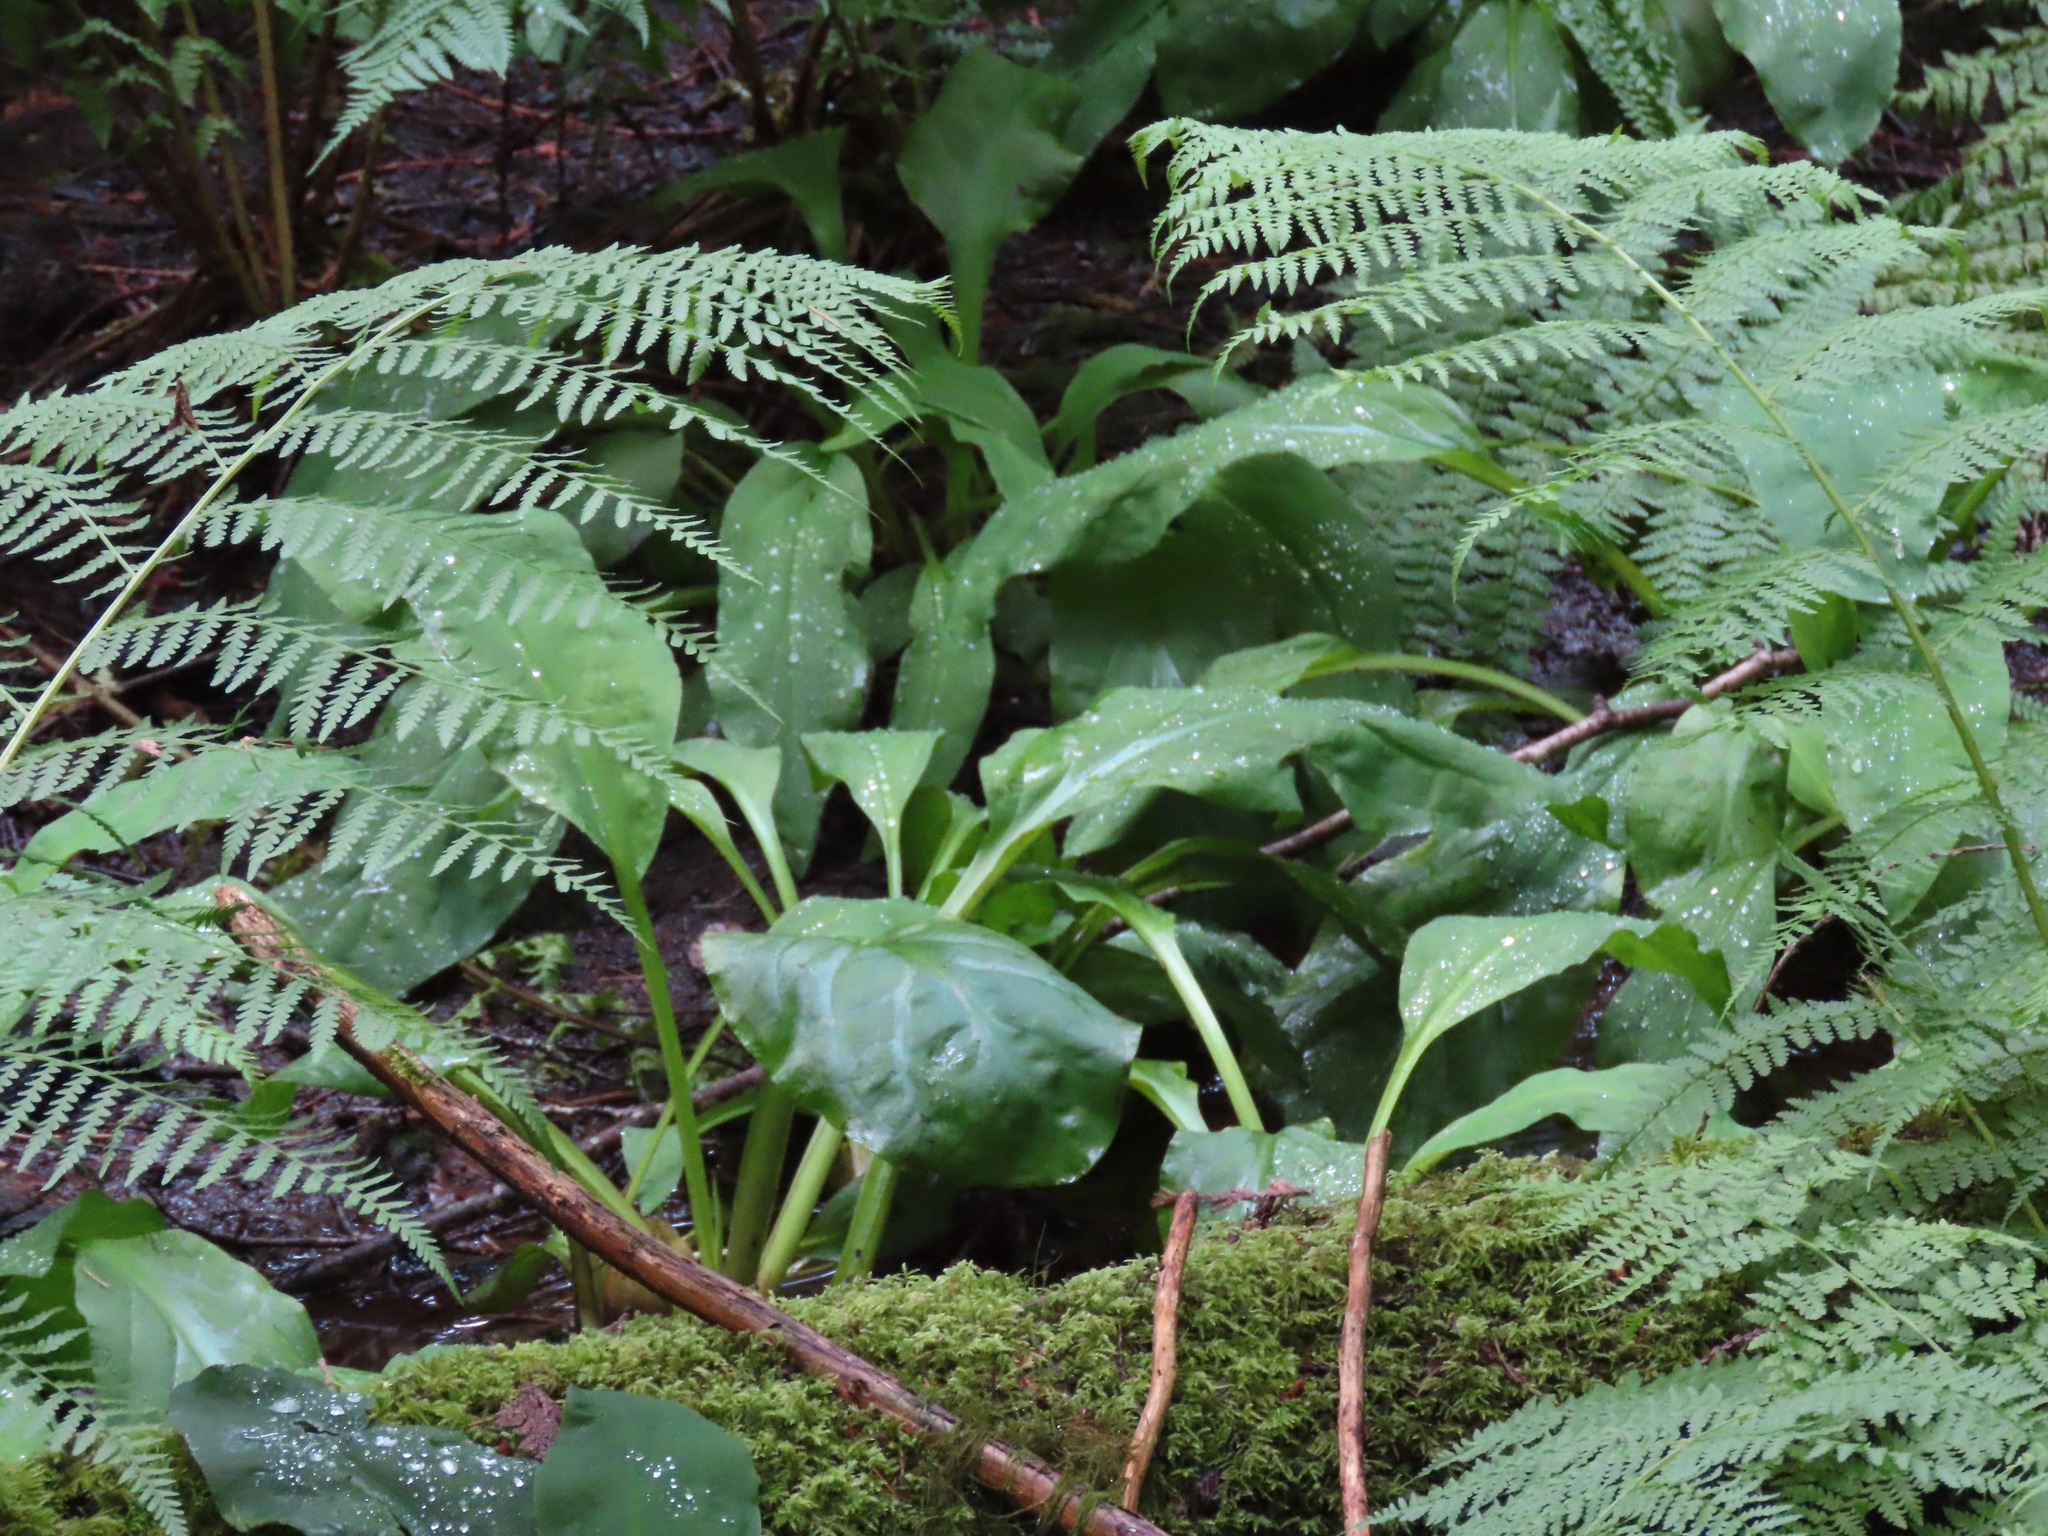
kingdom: Plantae
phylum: Tracheophyta
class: Liliopsida
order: Alismatales
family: Araceae
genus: Lysichiton
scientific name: Lysichiton americanus
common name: American skunk cabbage
